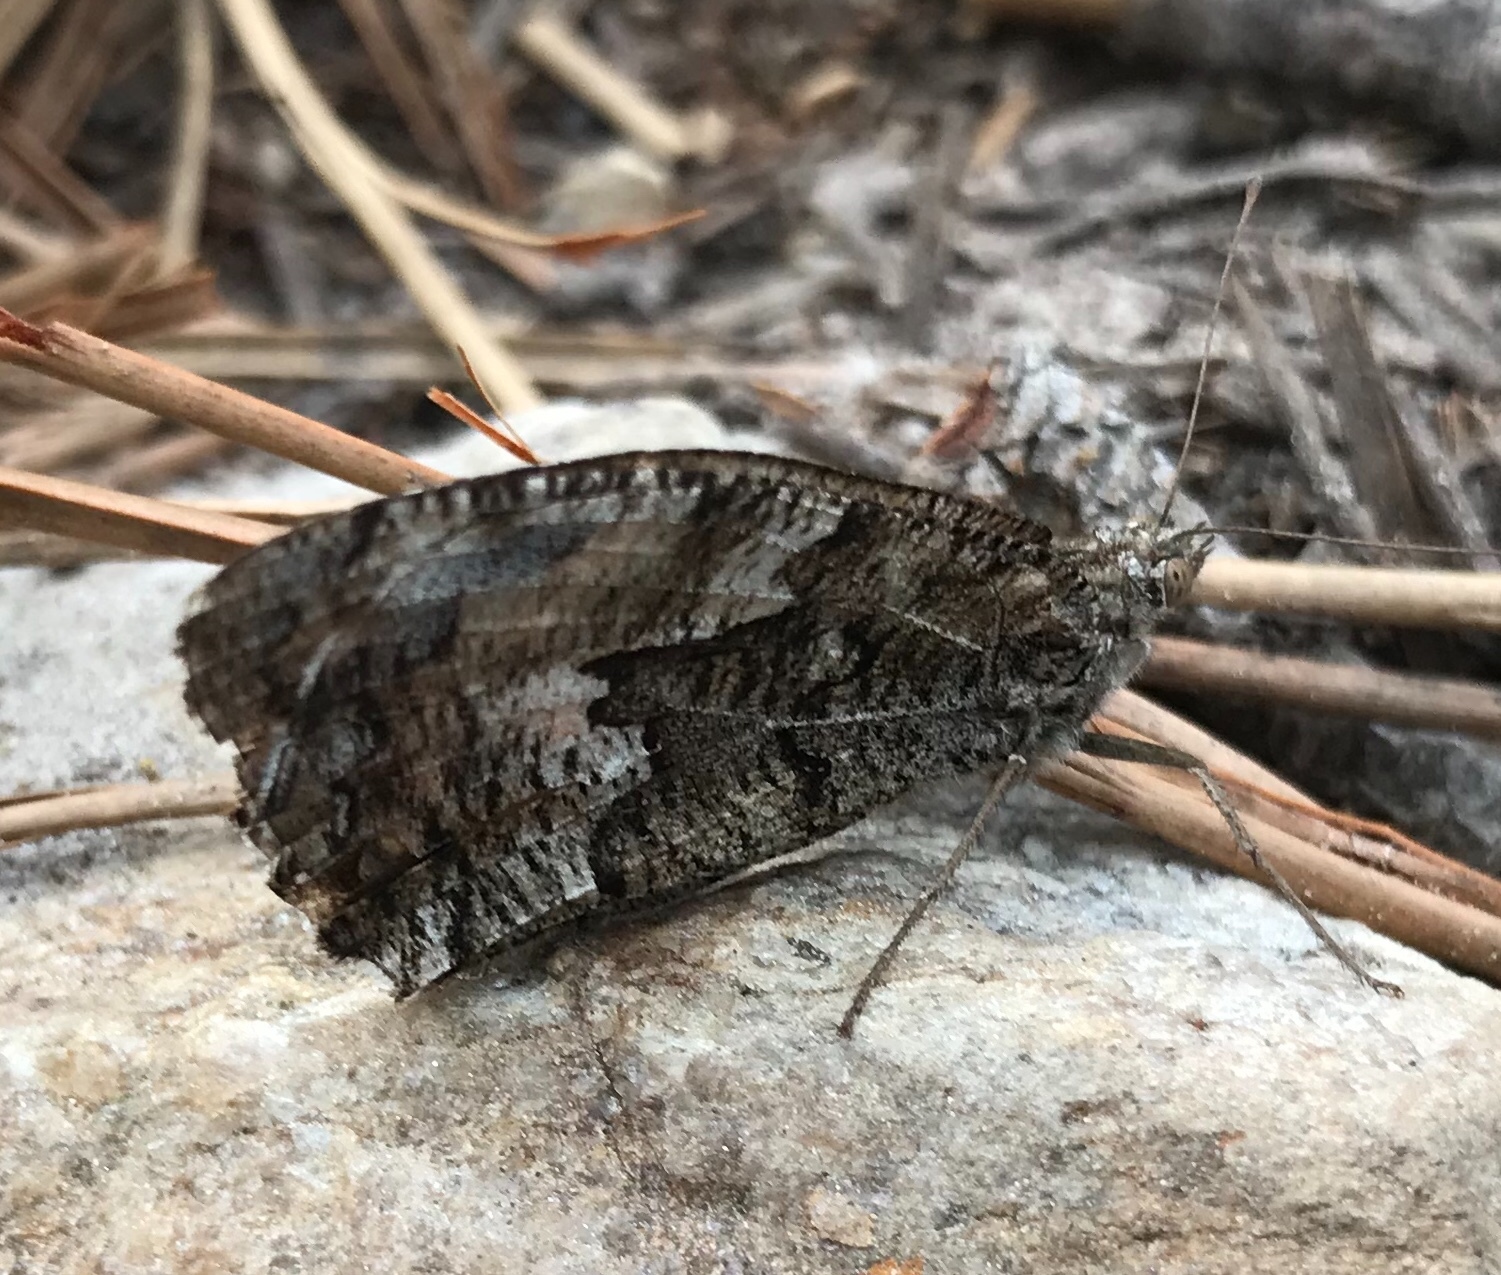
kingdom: Animalia
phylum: Arthropoda
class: Insecta
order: Lepidoptera
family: Nymphalidae
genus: Hipparchia
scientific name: Hipparchia semele
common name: Grayling
